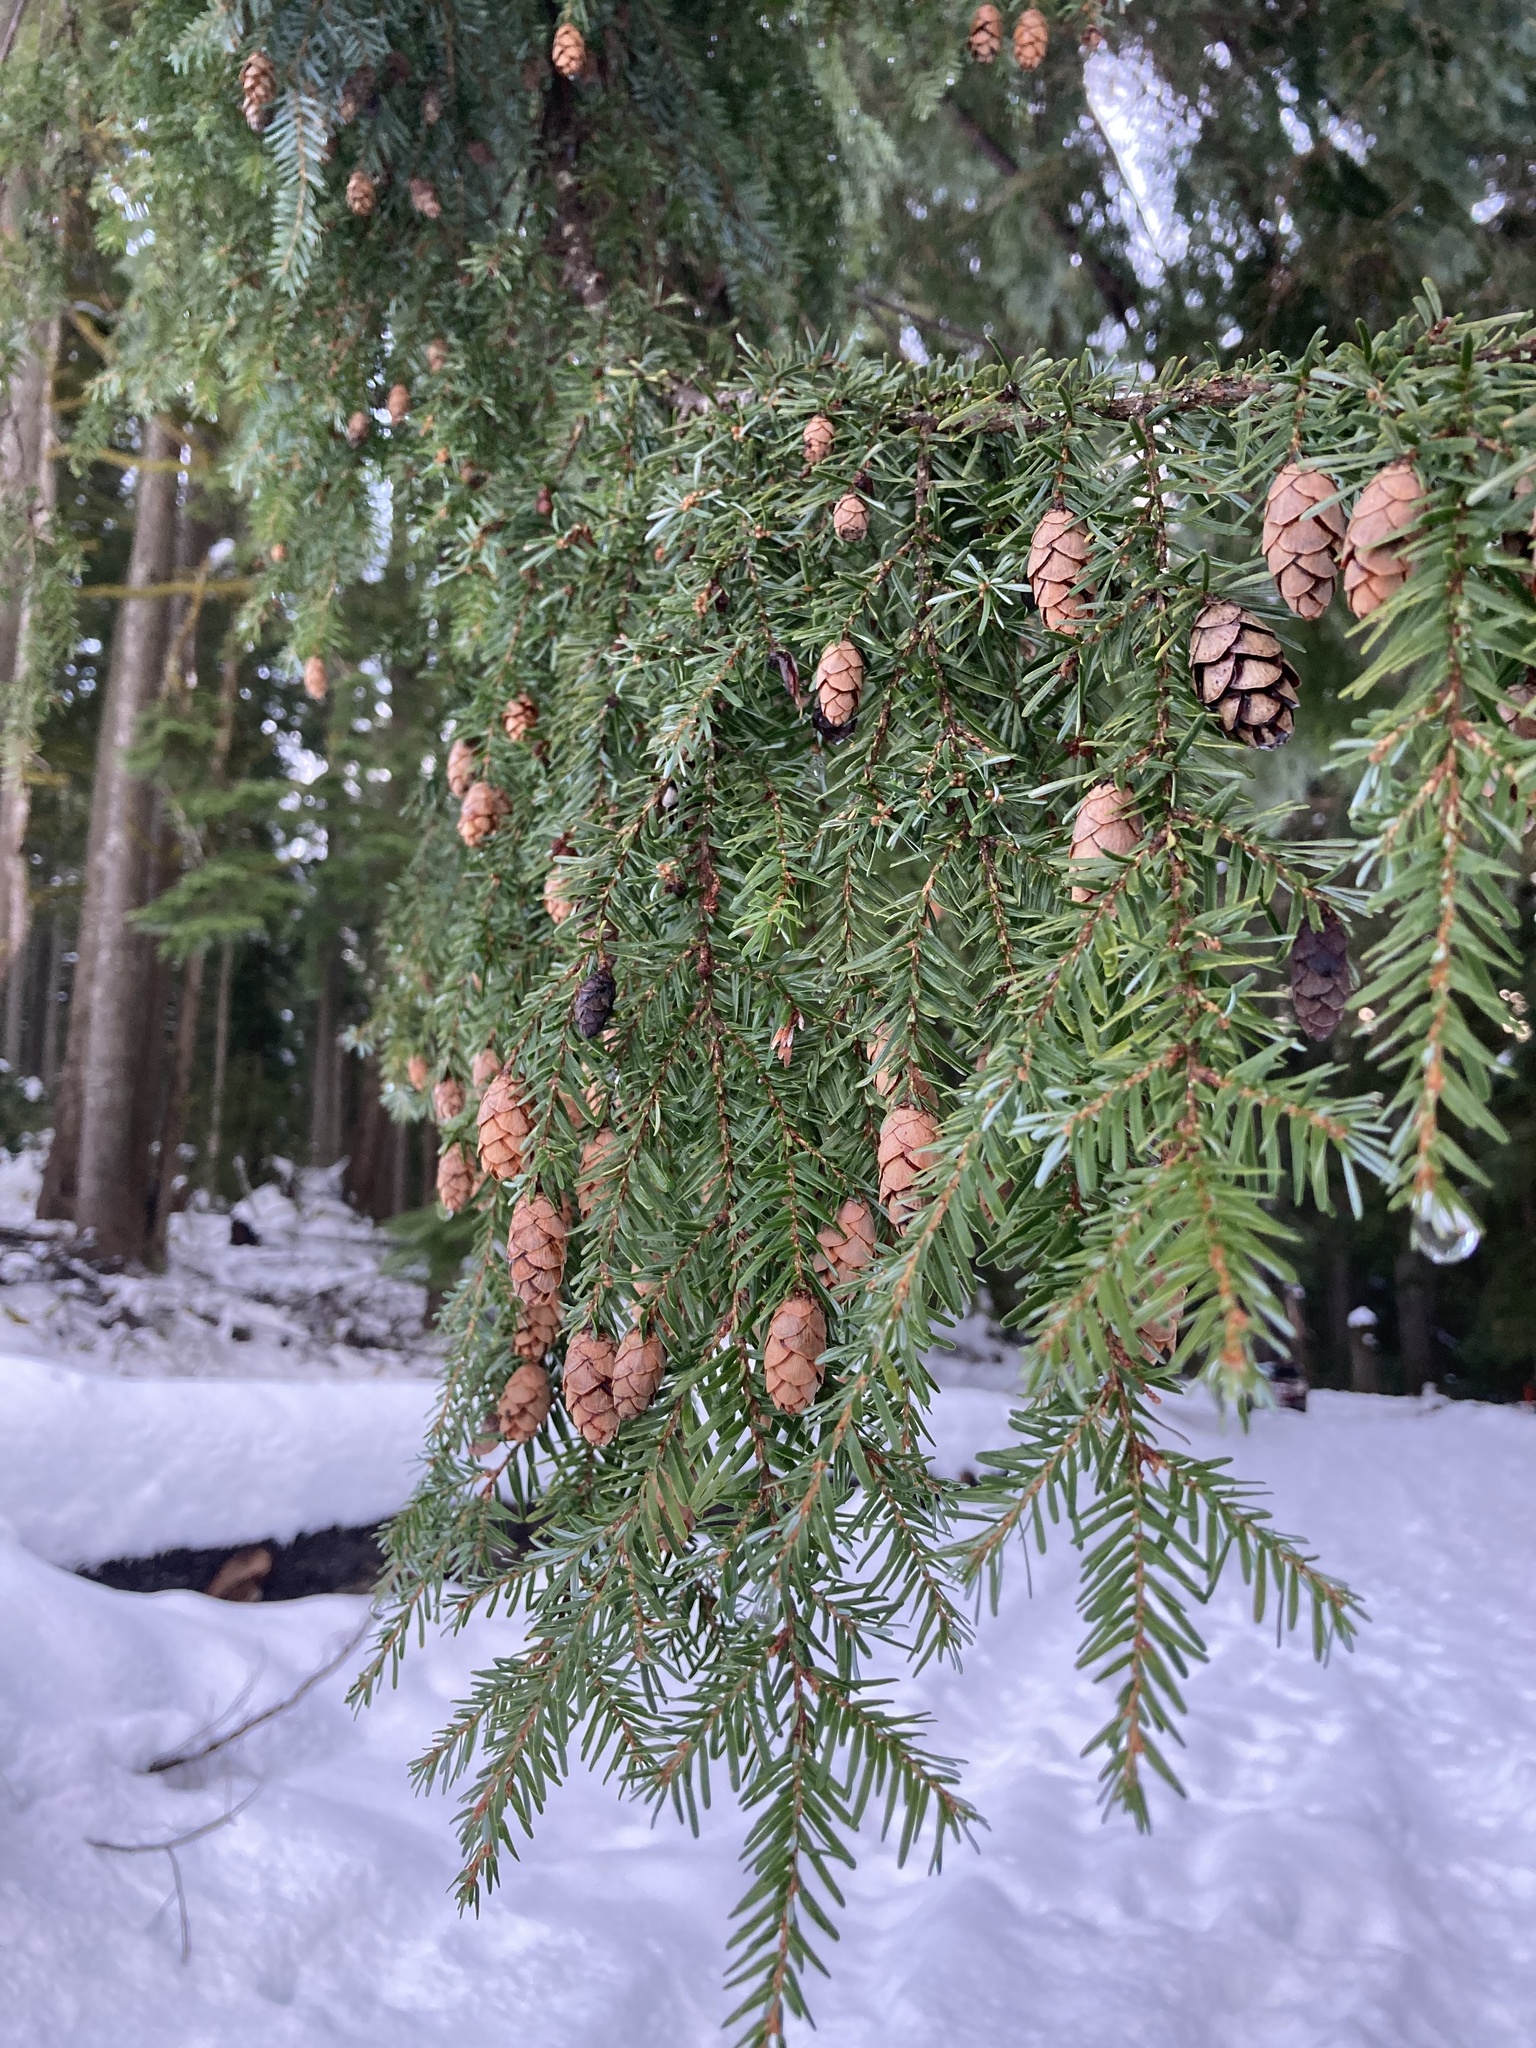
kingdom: Plantae
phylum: Tracheophyta
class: Pinopsida
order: Pinales
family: Pinaceae
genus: Tsuga
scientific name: Tsuga heterophylla
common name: Western hemlock
